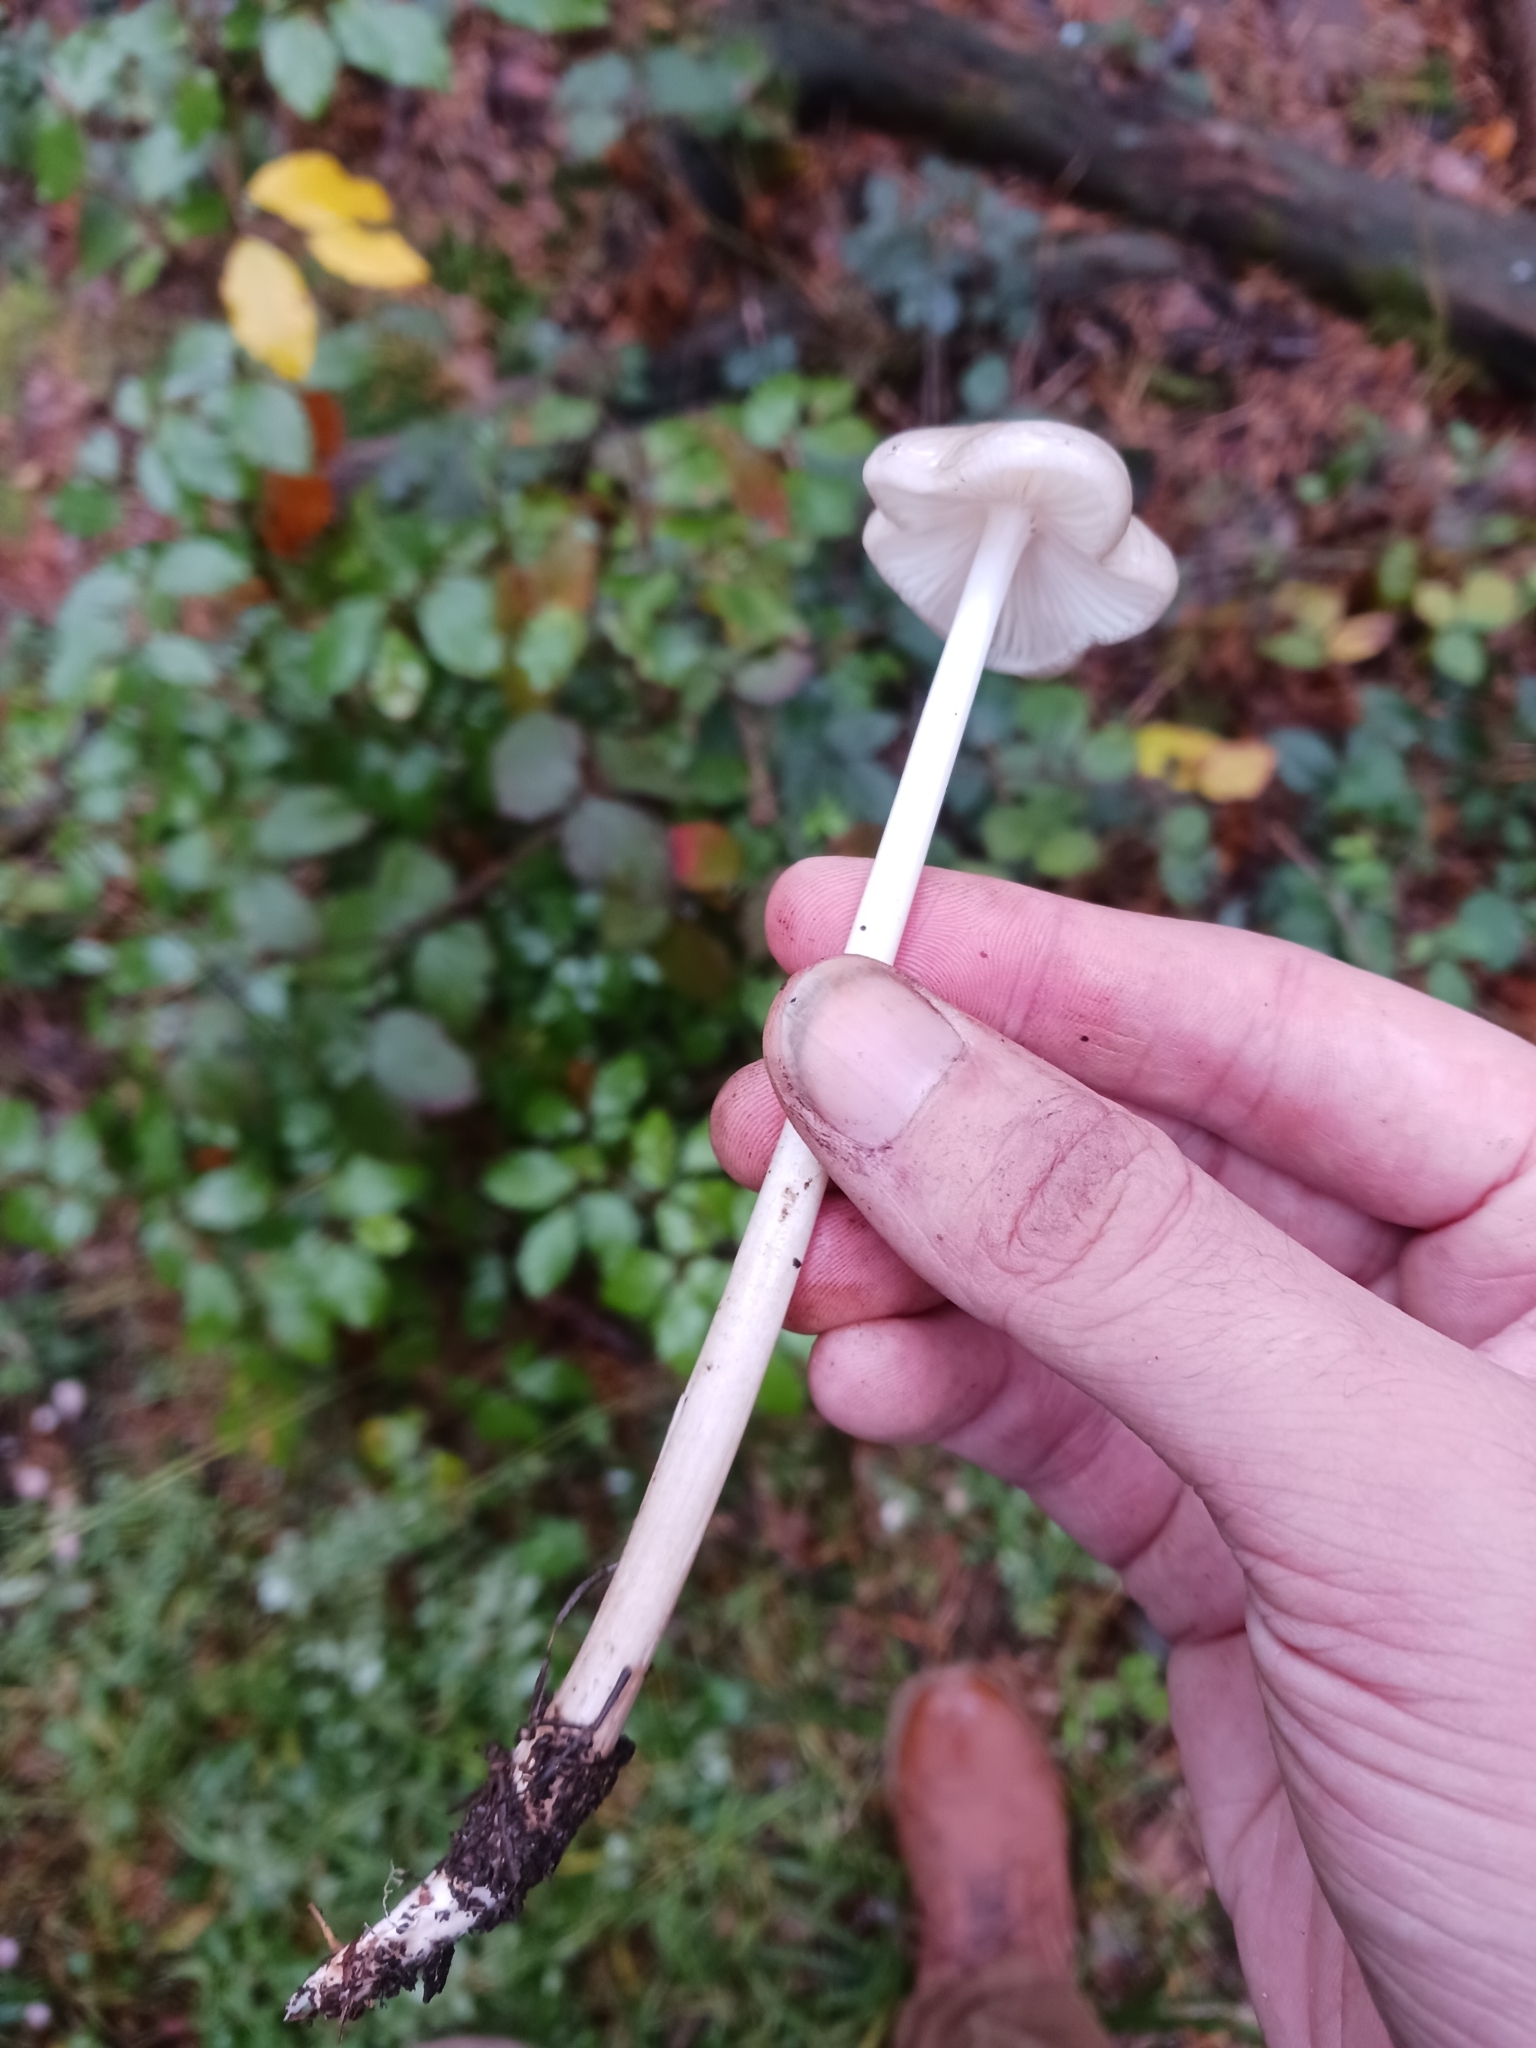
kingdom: Fungi
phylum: Basidiomycota
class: Agaricomycetes
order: Agaricales
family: Physalacriaceae
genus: Hymenopellis
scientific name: Hymenopellis radicata
